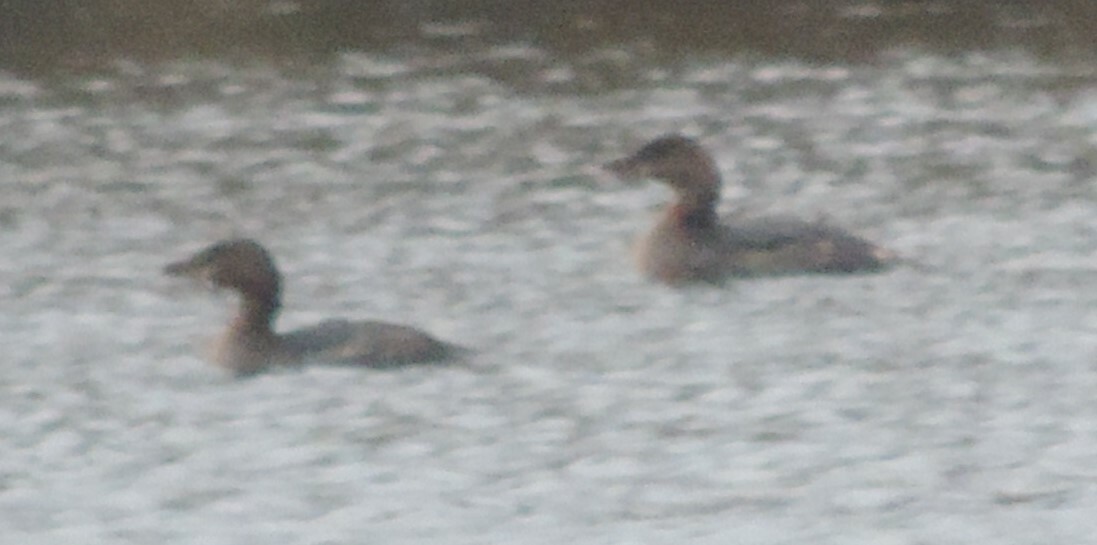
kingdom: Animalia
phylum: Chordata
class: Aves
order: Podicipediformes
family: Podicipedidae
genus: Podilymbus
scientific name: Podilymbus podiceps
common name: Pied-billed grebe
